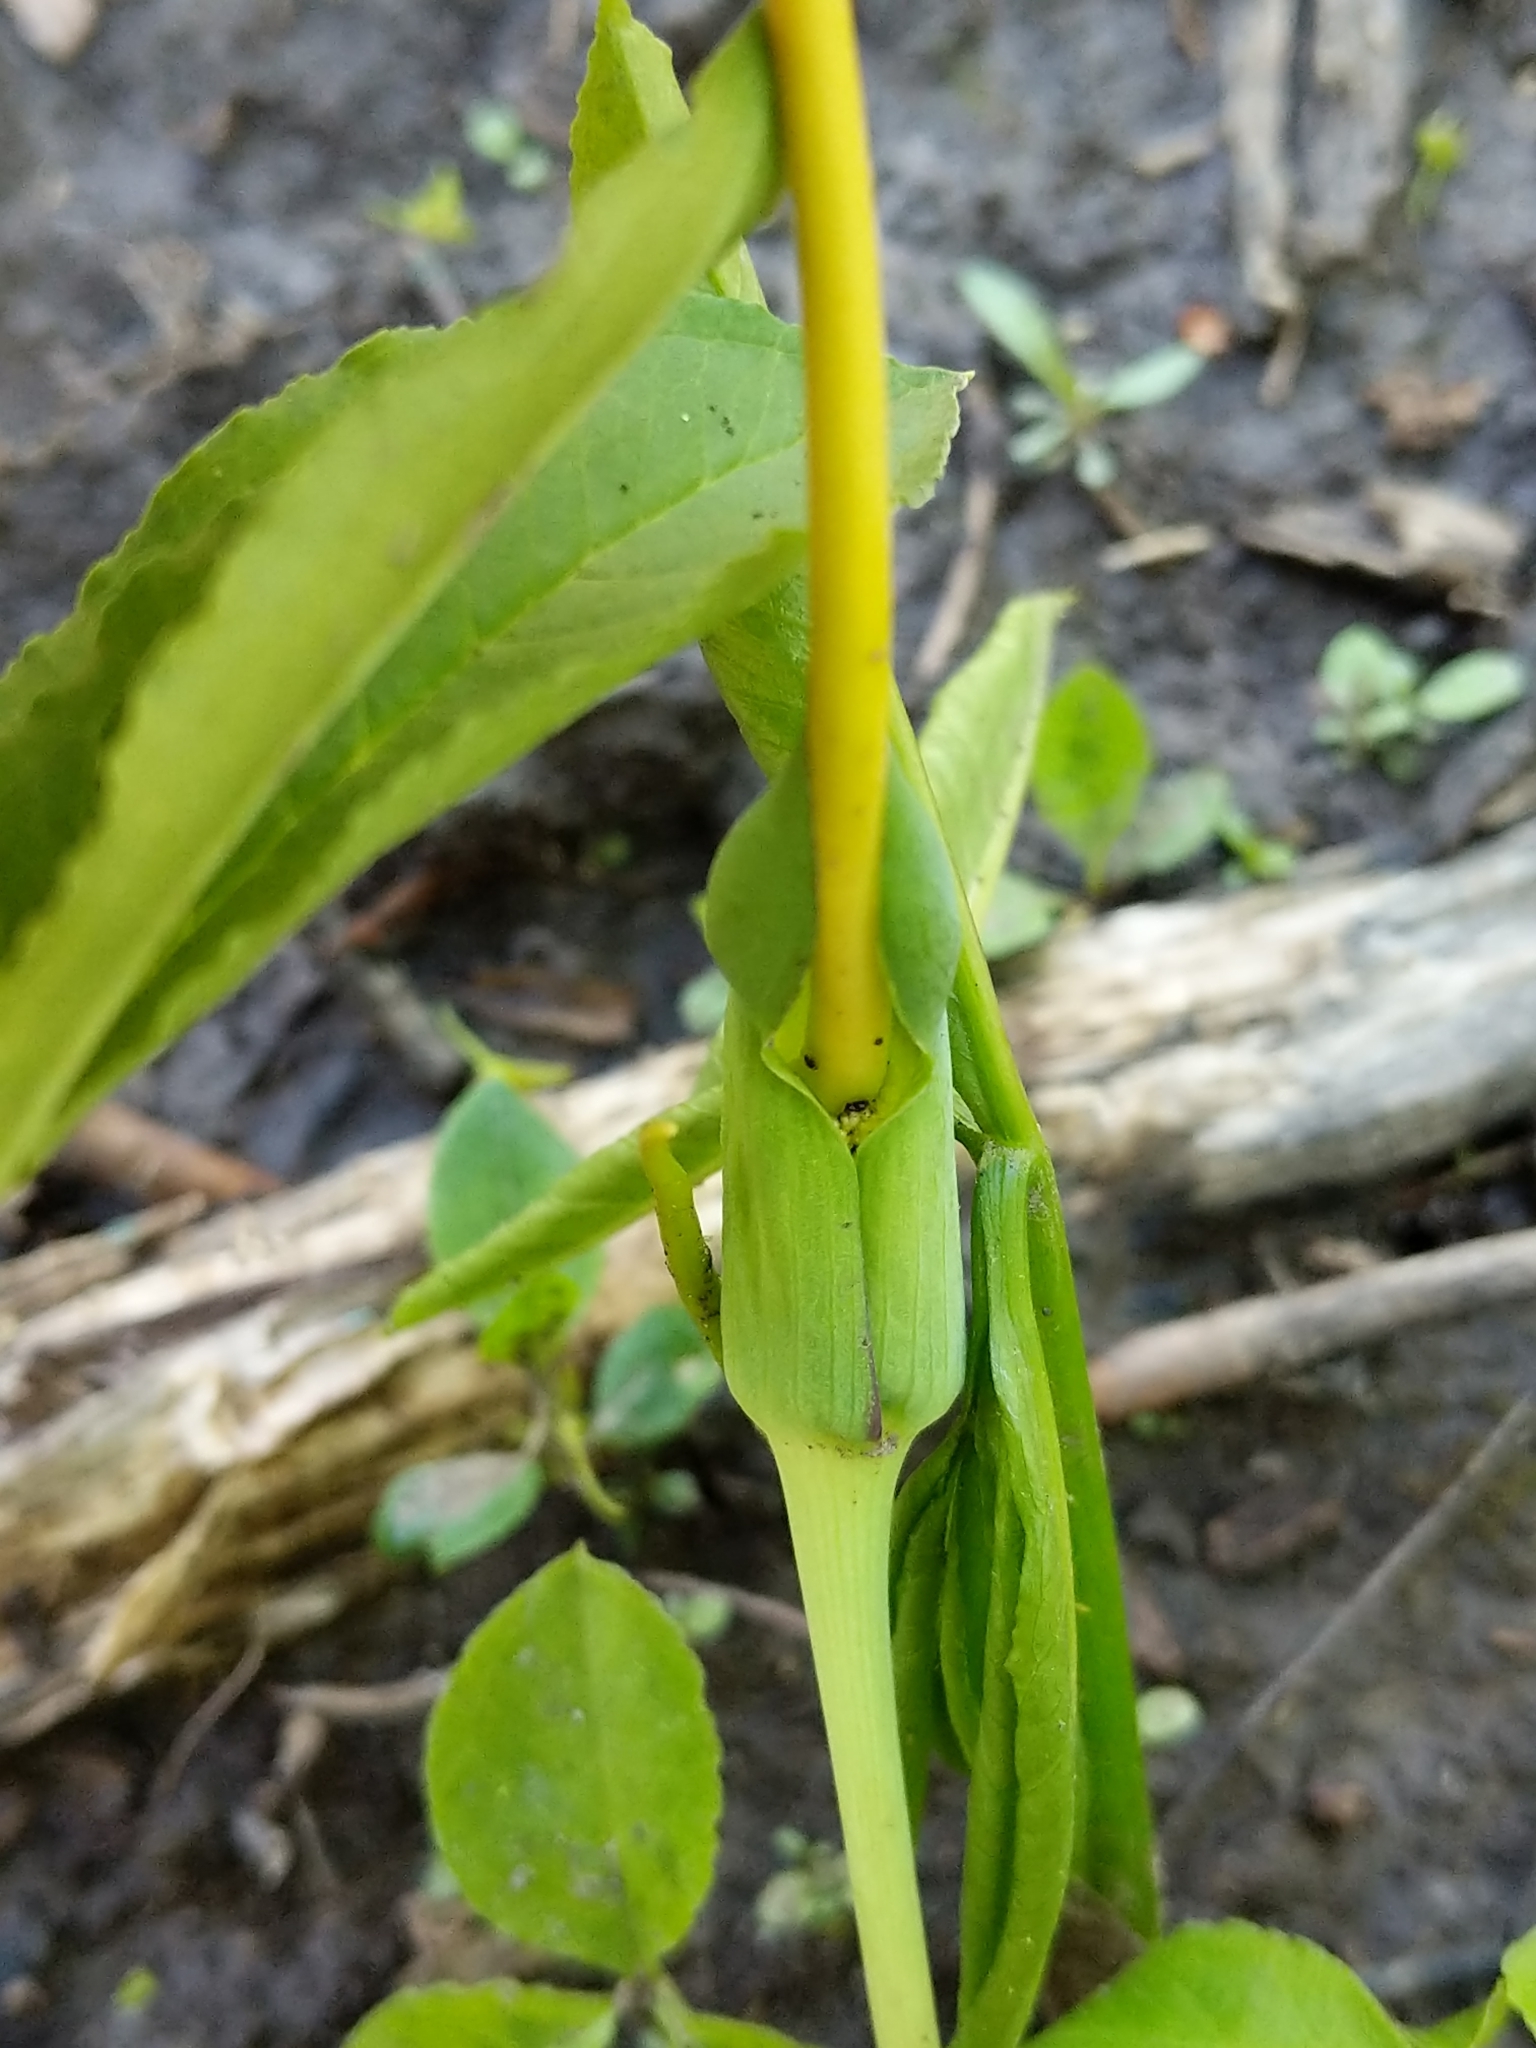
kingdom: Plantae
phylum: Tracheophyta
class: Liliopsida
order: Alismatales
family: Araceae
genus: Arisaema
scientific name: Arisaema dracontium
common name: Dragon-arum
